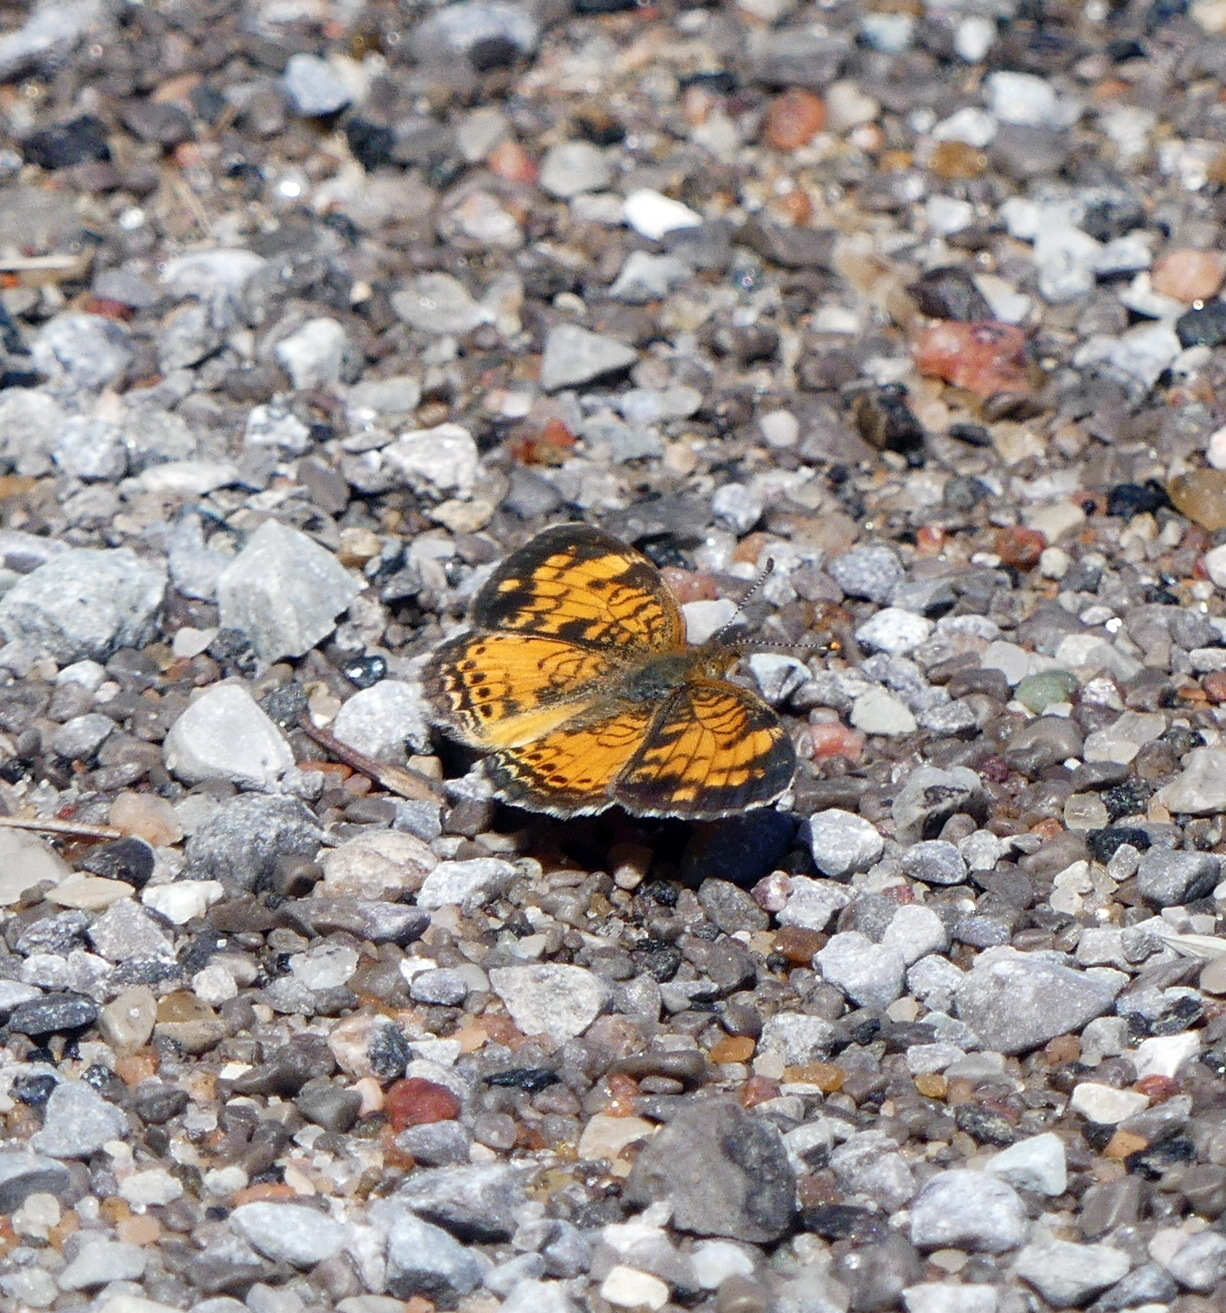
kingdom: Animalia
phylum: Arthropoda
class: Insecta
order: Lepidoptera
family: Nymphalidae
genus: Phyciodes
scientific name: Phyciodes tharos
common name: Pearl crescent
